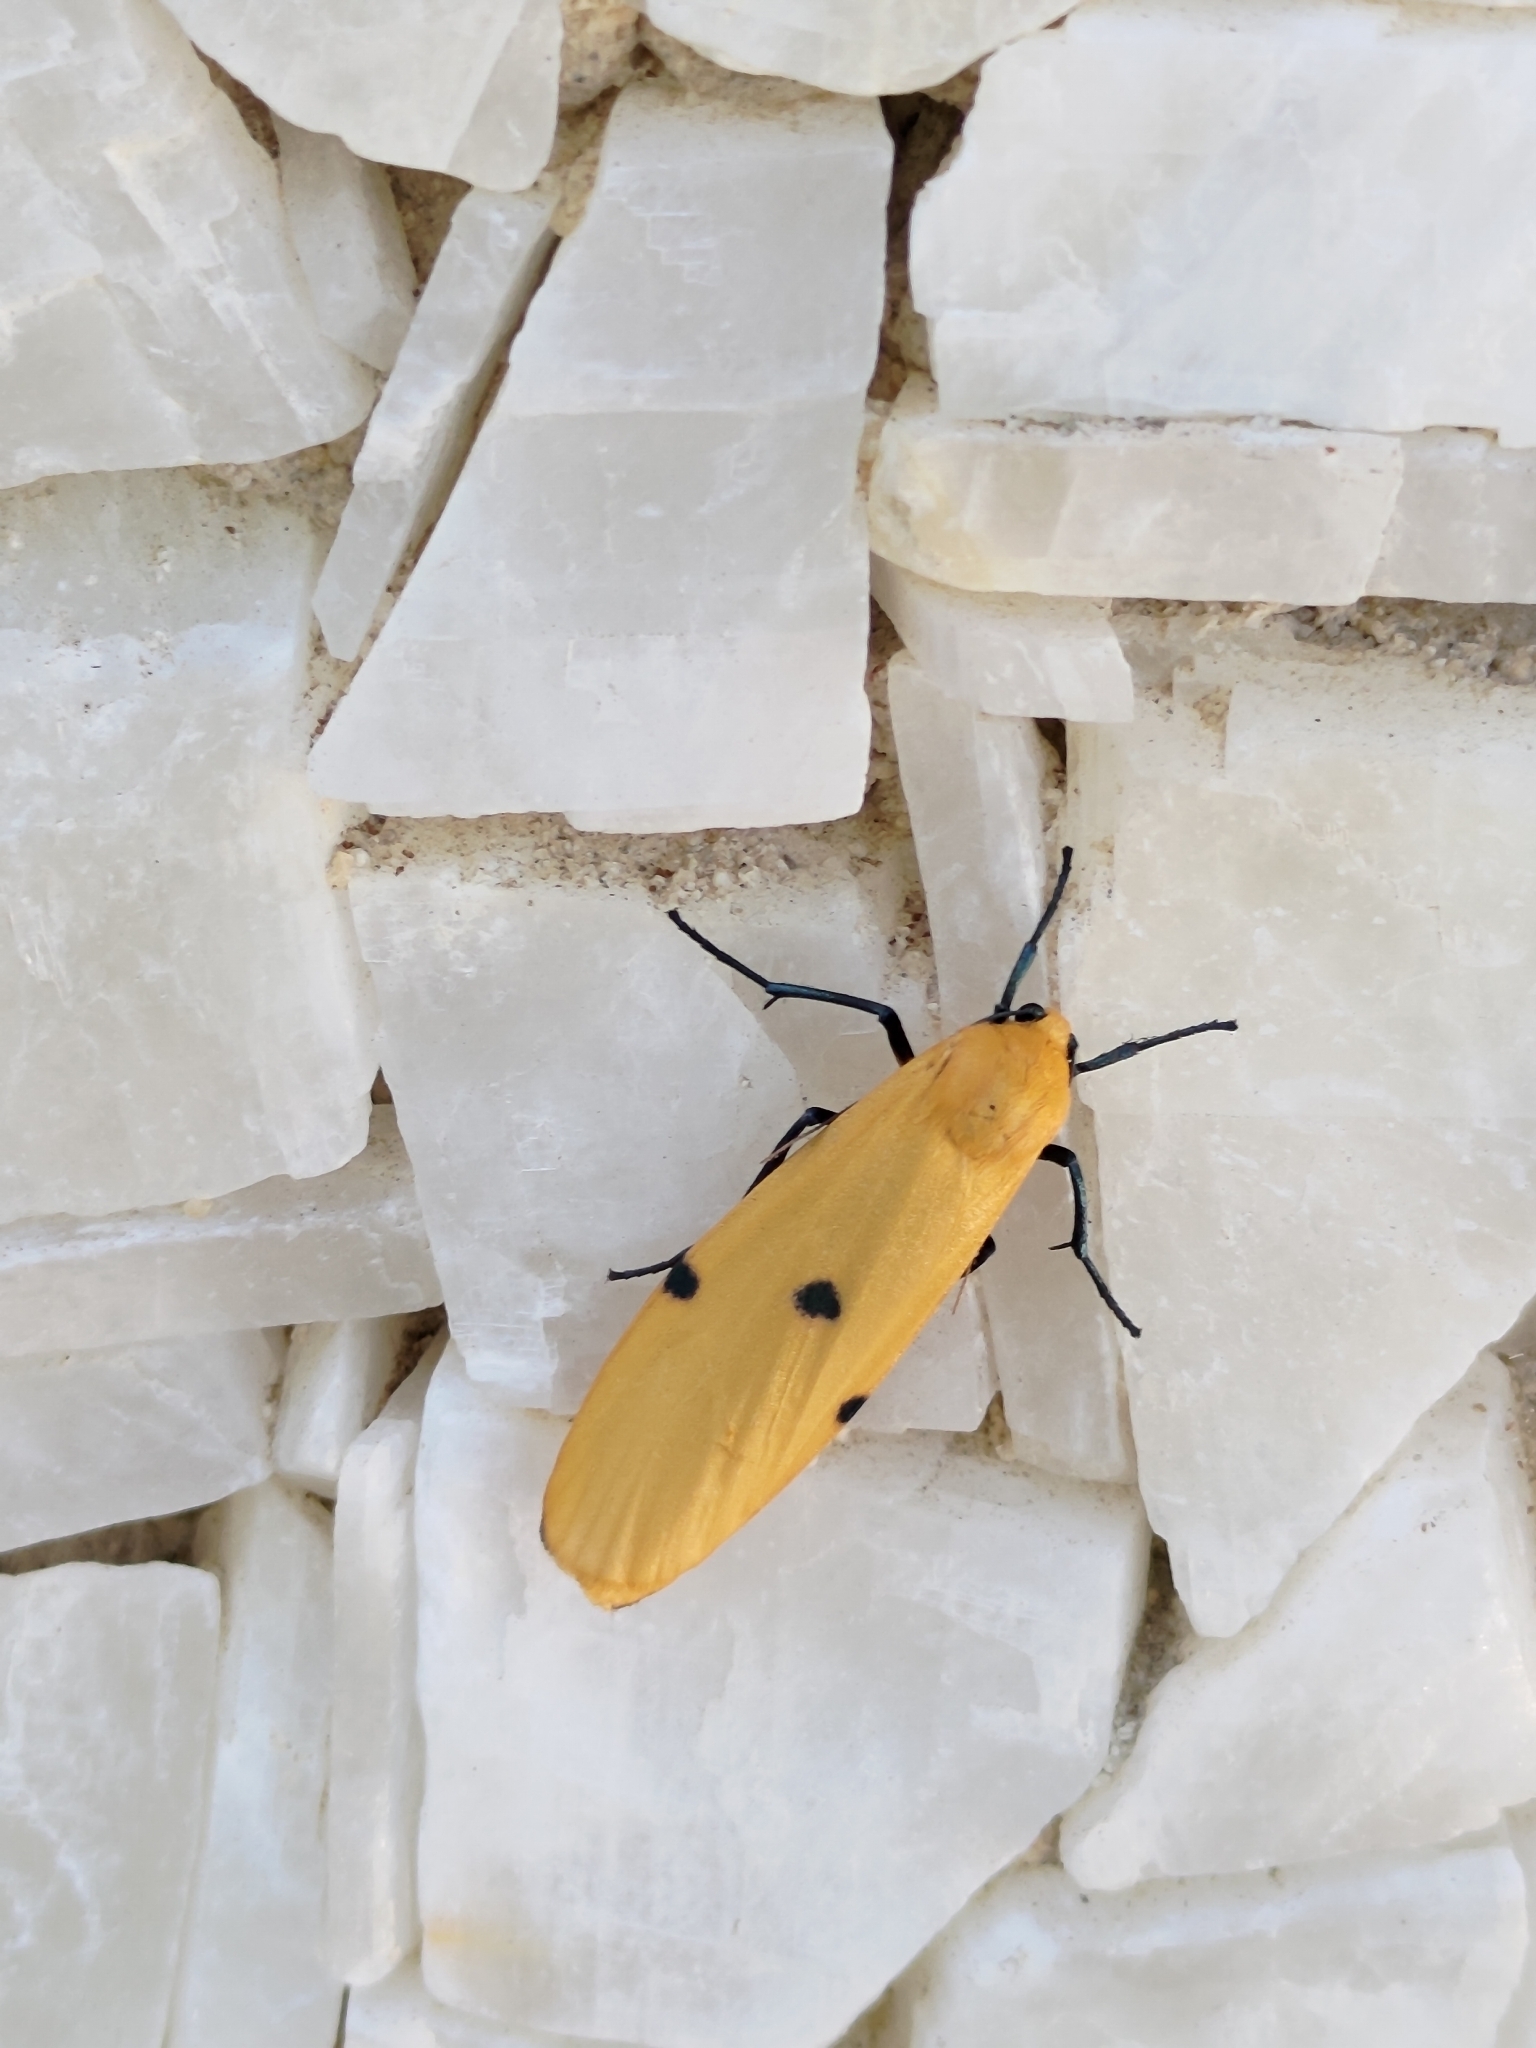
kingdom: Animalia
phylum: Arthropoda
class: Insecta
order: Lepidoptera
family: Erebidae
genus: Lithosia
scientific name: Lithosia quadra
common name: Four-spotted footman
